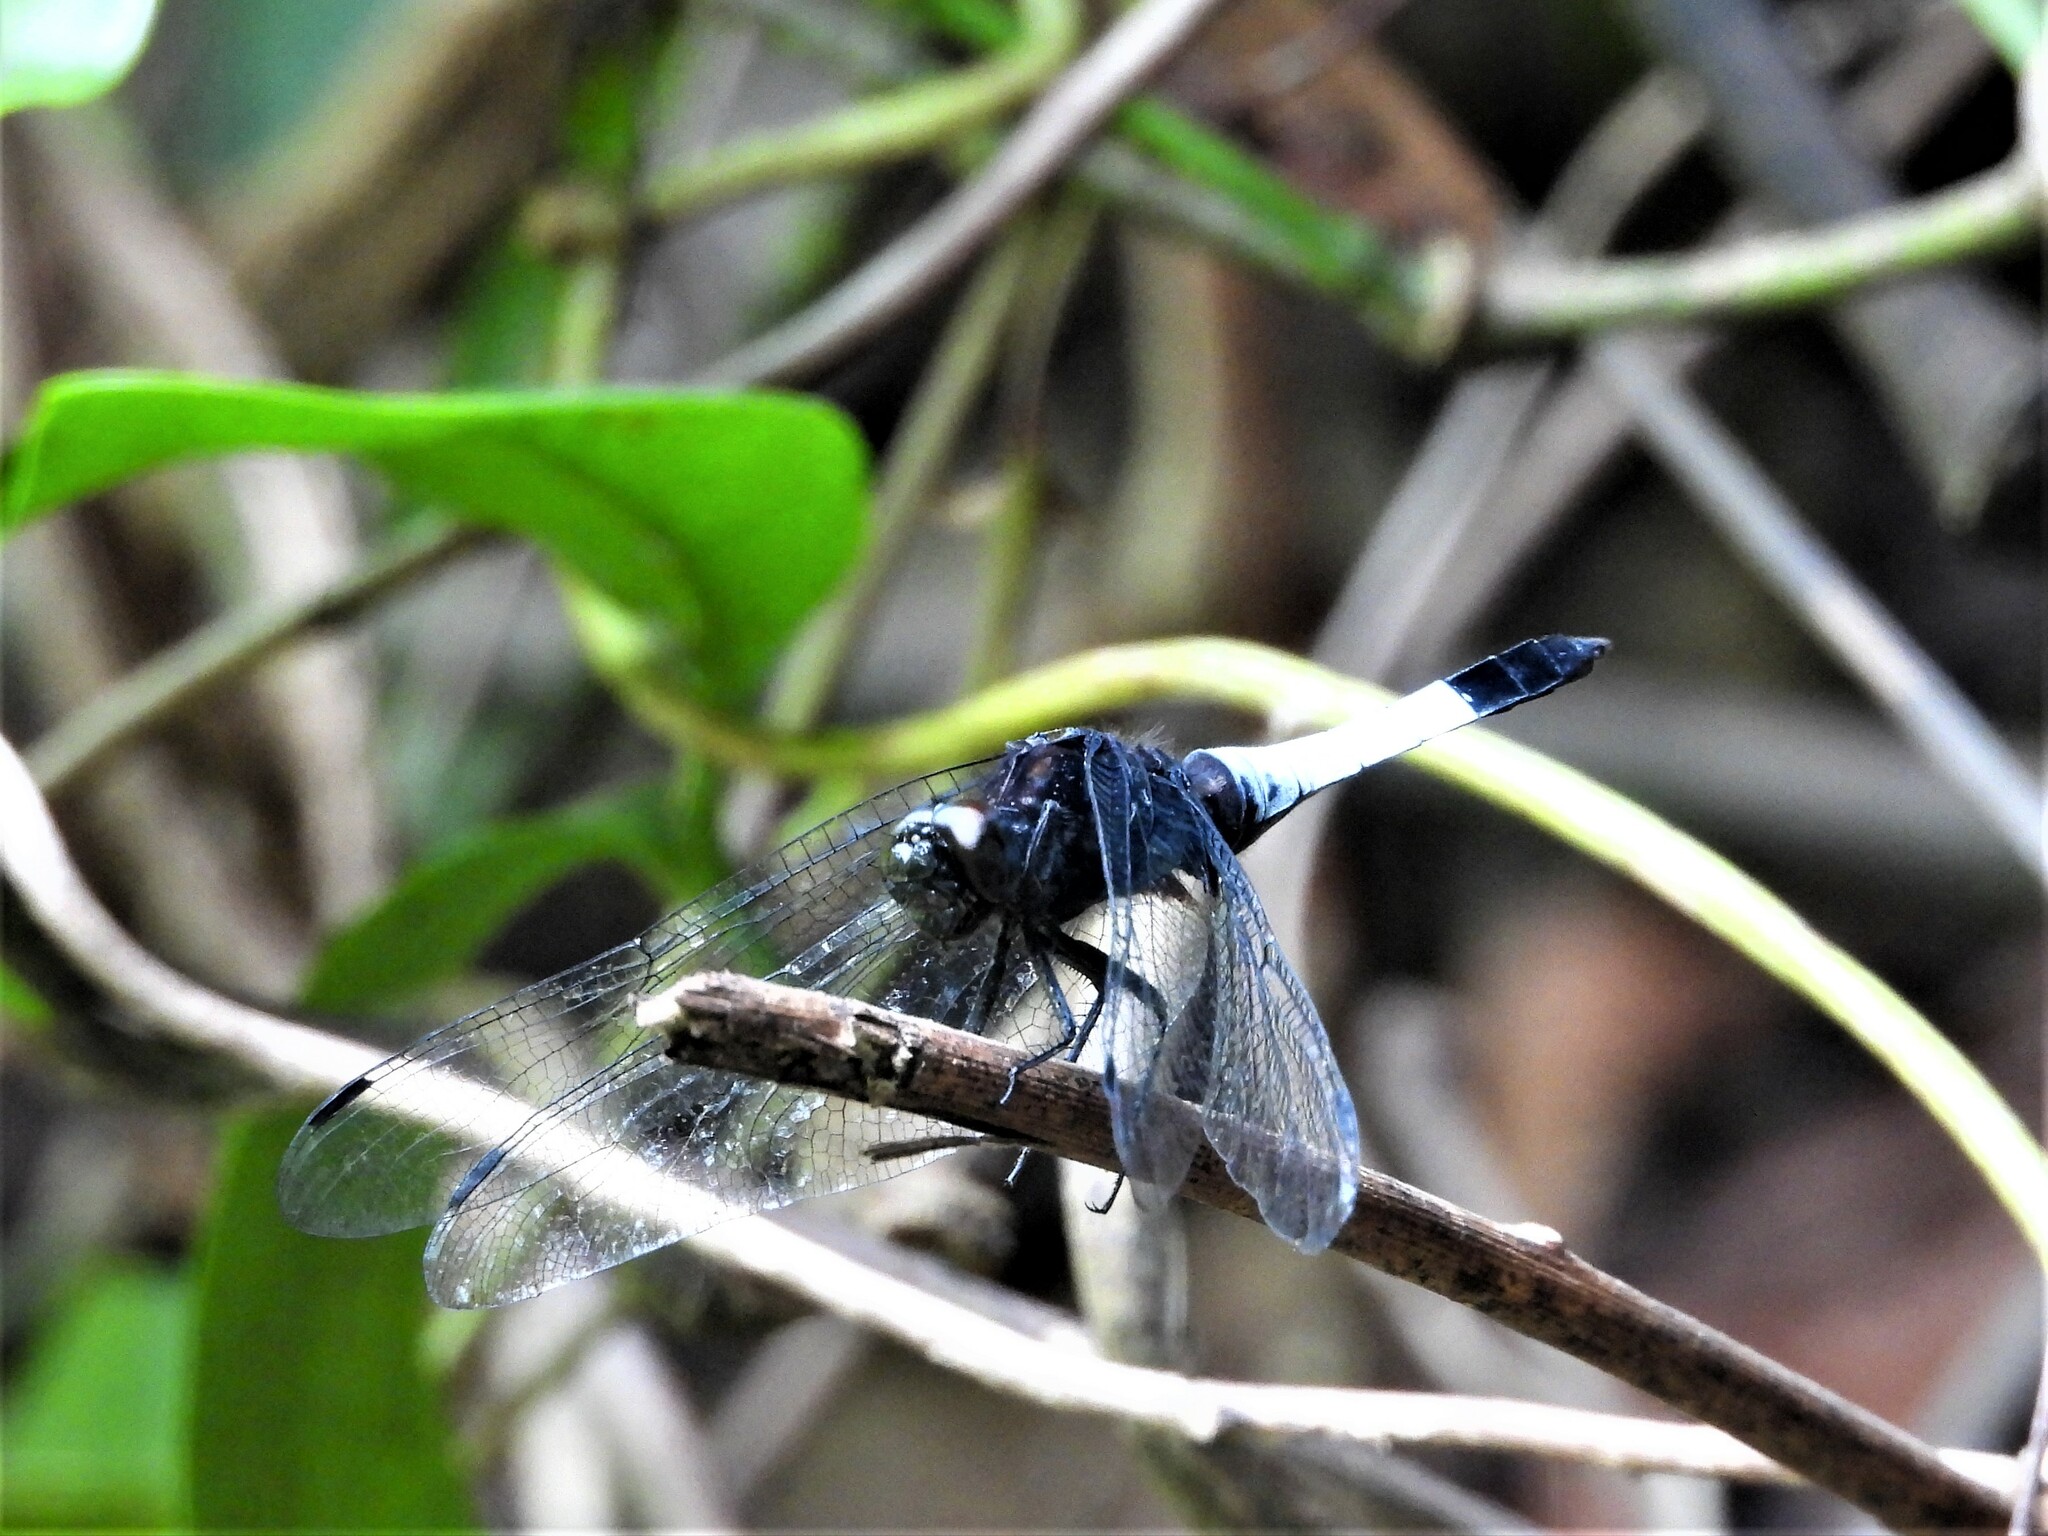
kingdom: Animalia
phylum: Arthropoda
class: Insecta
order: Odonata
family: Libellulidae
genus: Orthetrum
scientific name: Orthetrum triangulare
